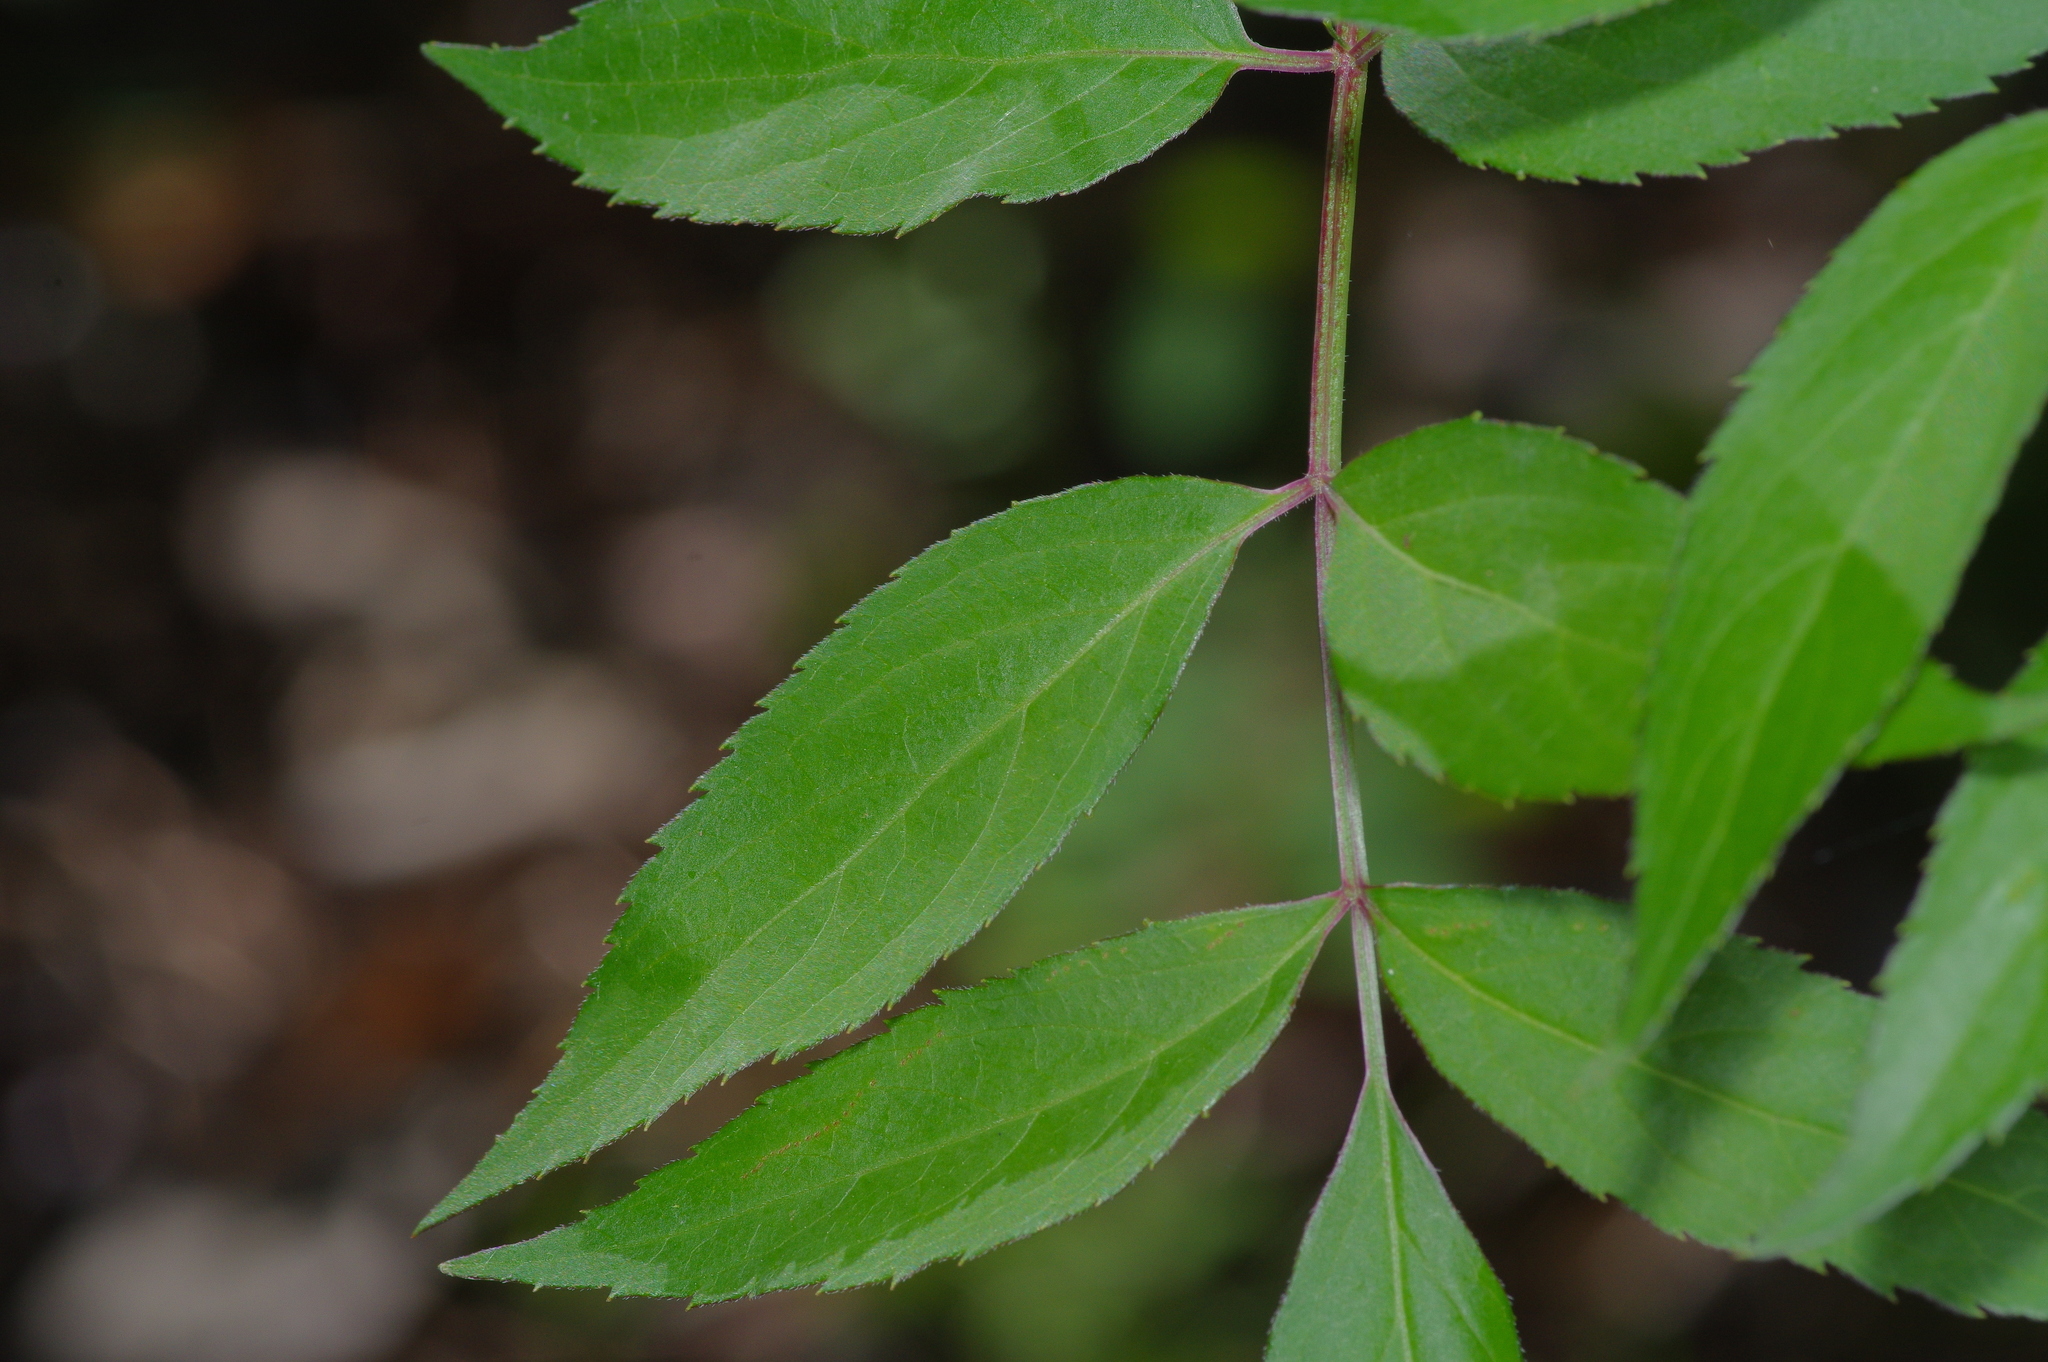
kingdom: Plantae
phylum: Tracheophyta
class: Magnoliopsida
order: Dipsacales
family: Viburnaceae
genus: Sambucus
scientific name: Sambucus canadensis
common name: American elder
